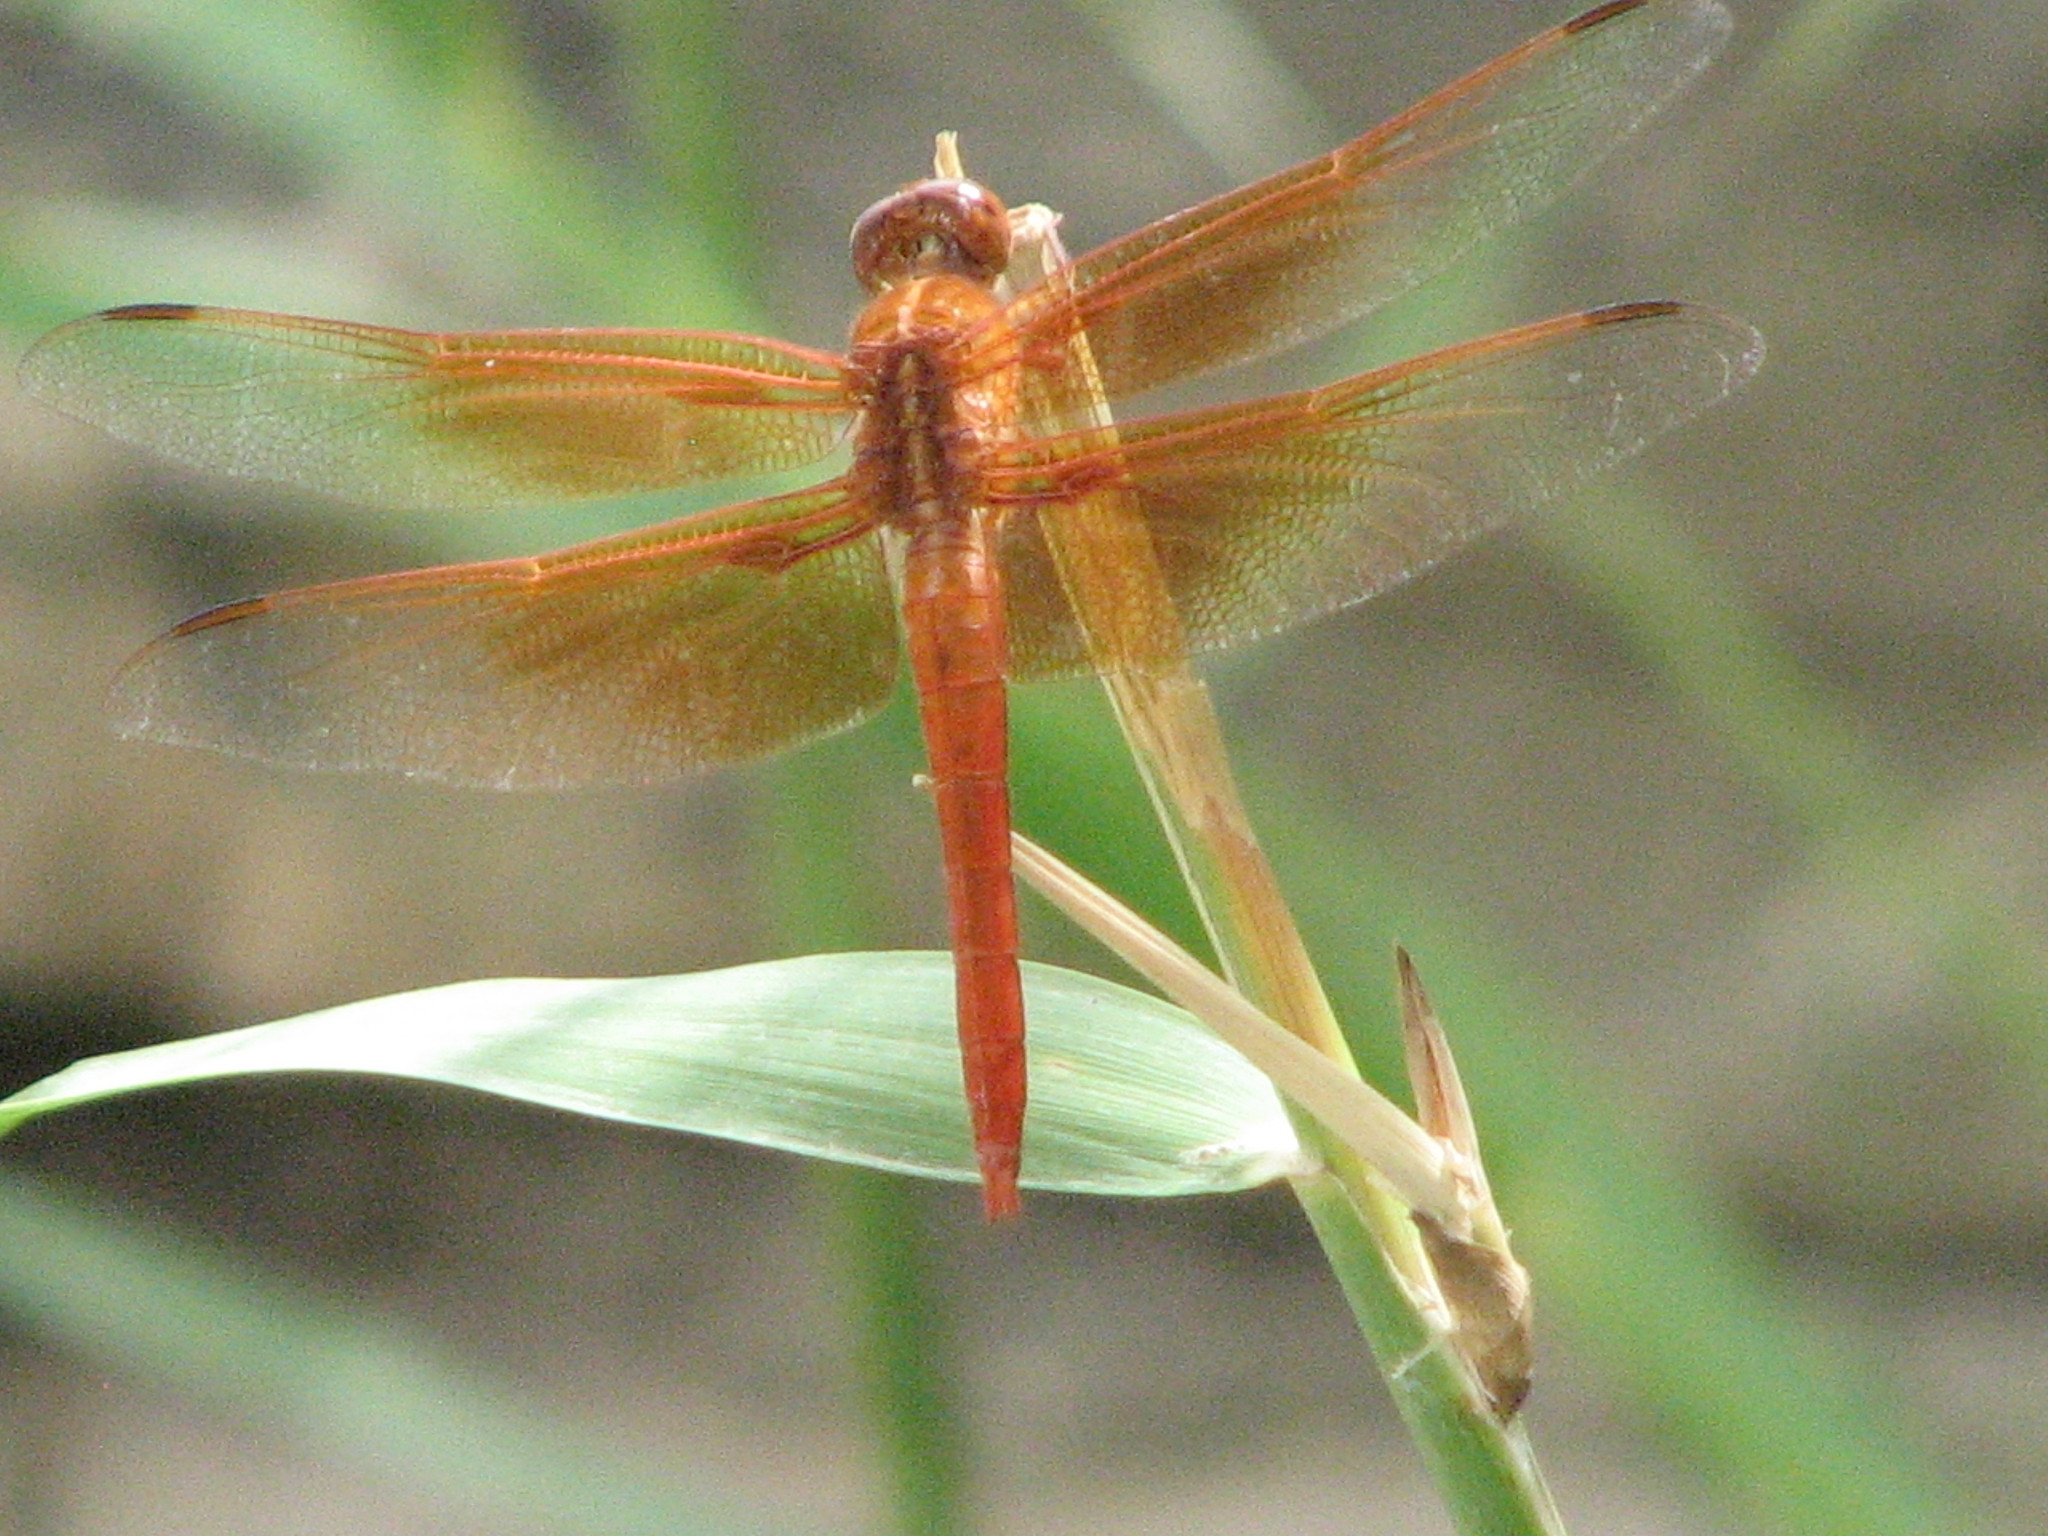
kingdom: Animalia
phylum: Arthropoda
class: Insecta
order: Odonata
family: Libellulidae
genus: Libellula
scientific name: Libellula saturata
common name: Flame skimmer
